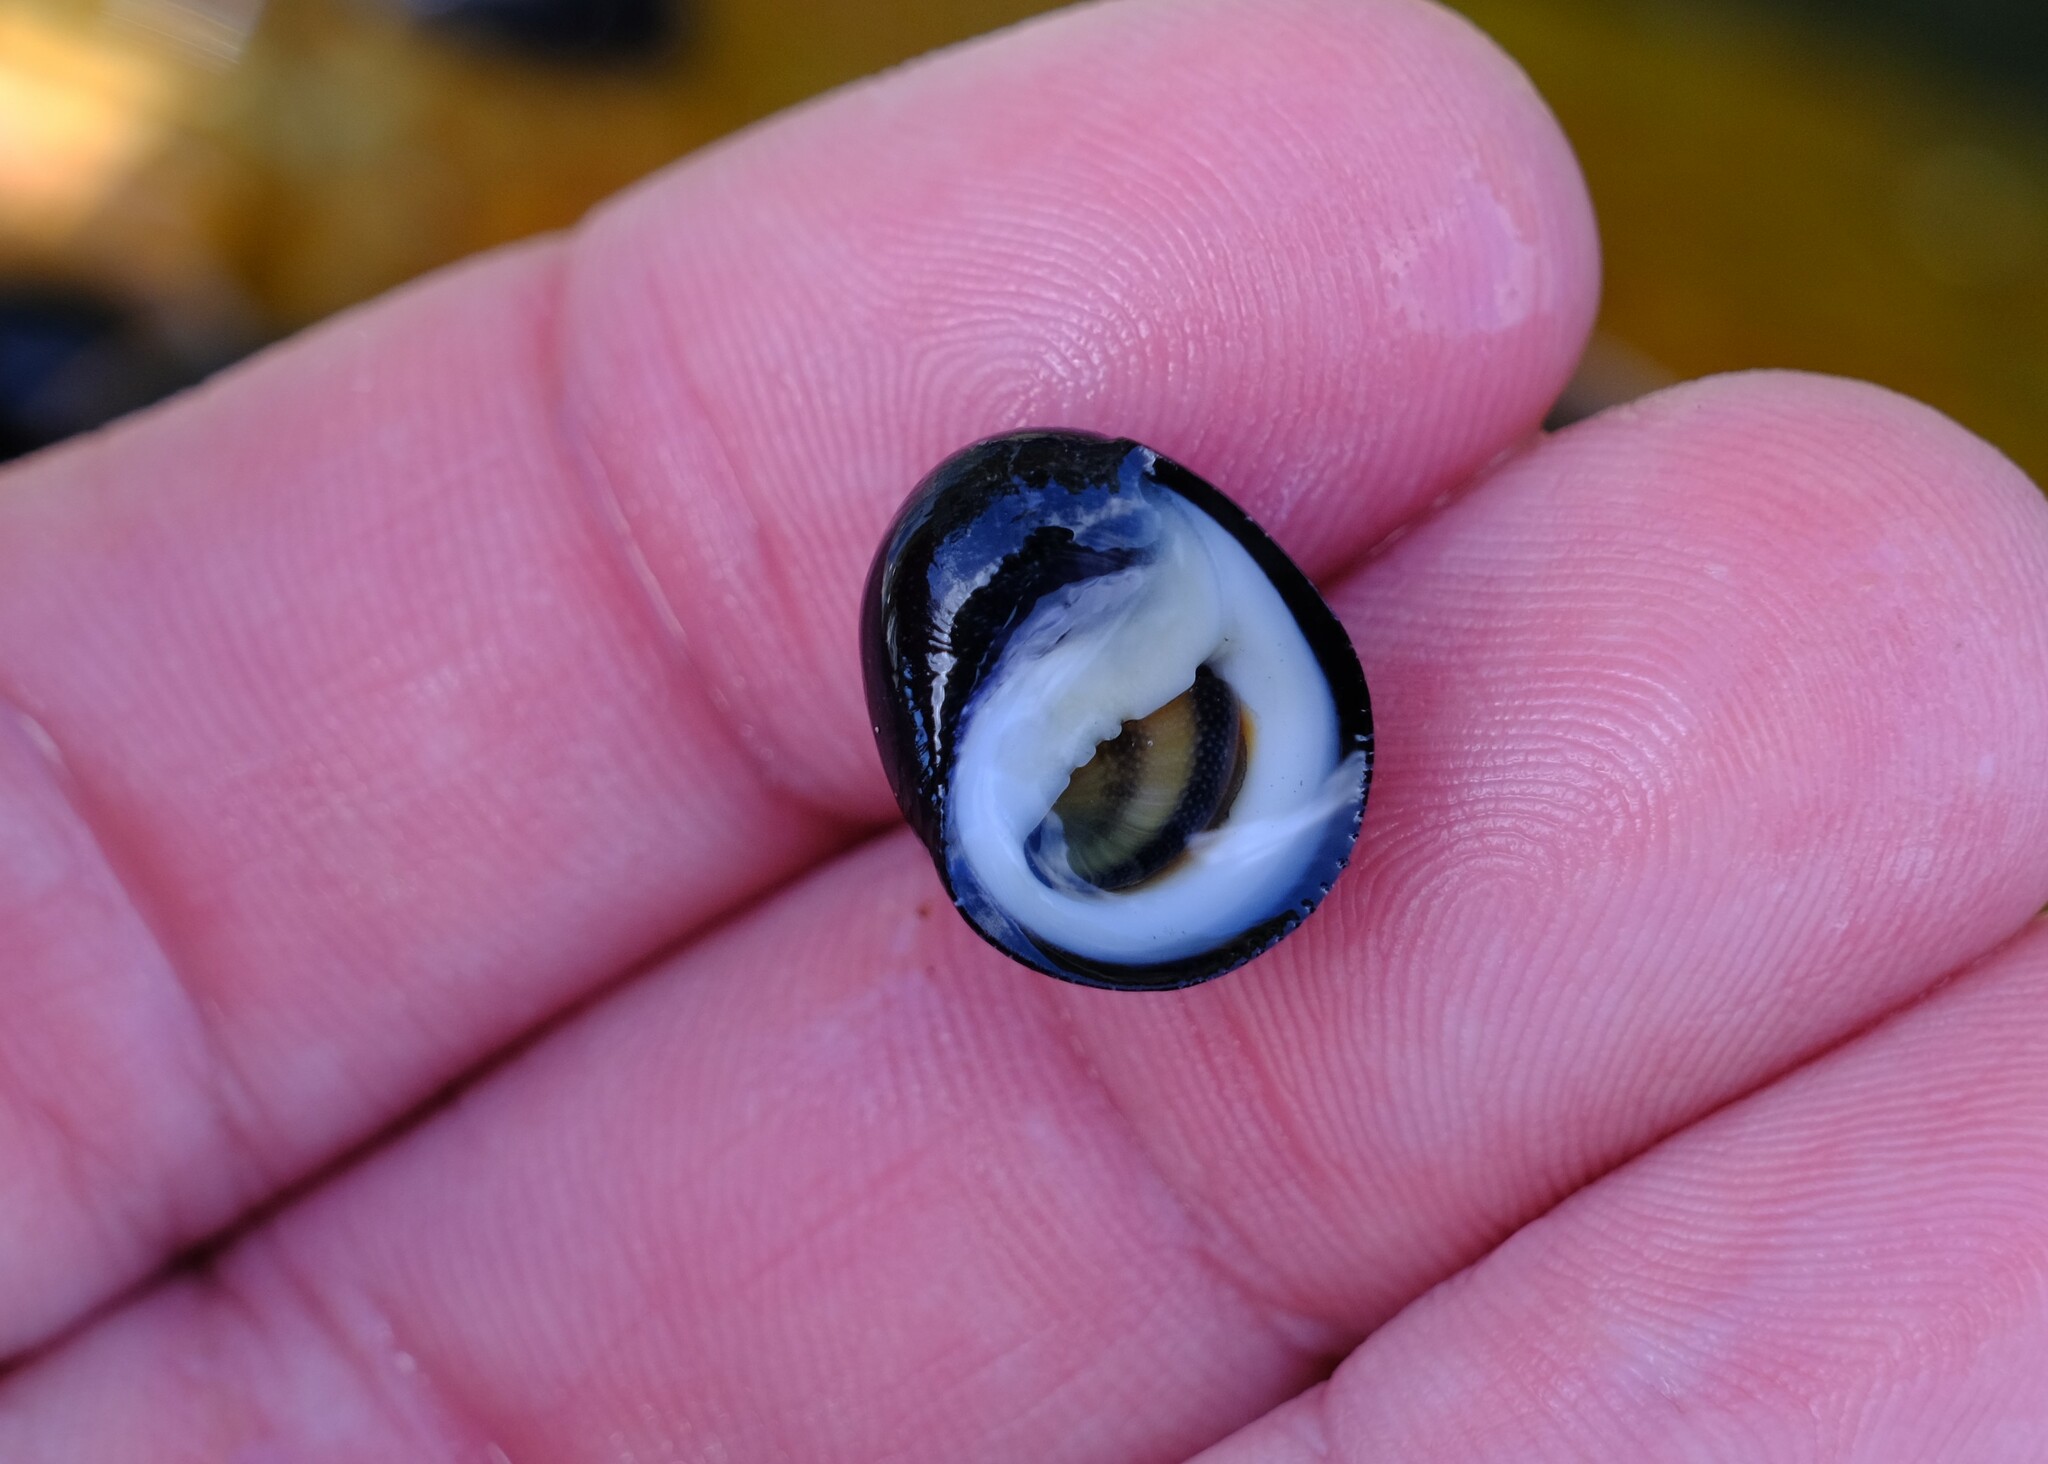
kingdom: Animalia
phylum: Mollusca
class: Gastropoda
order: Cycloneritida
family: Neritidae
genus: Nerita
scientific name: Nerita melanotragus
